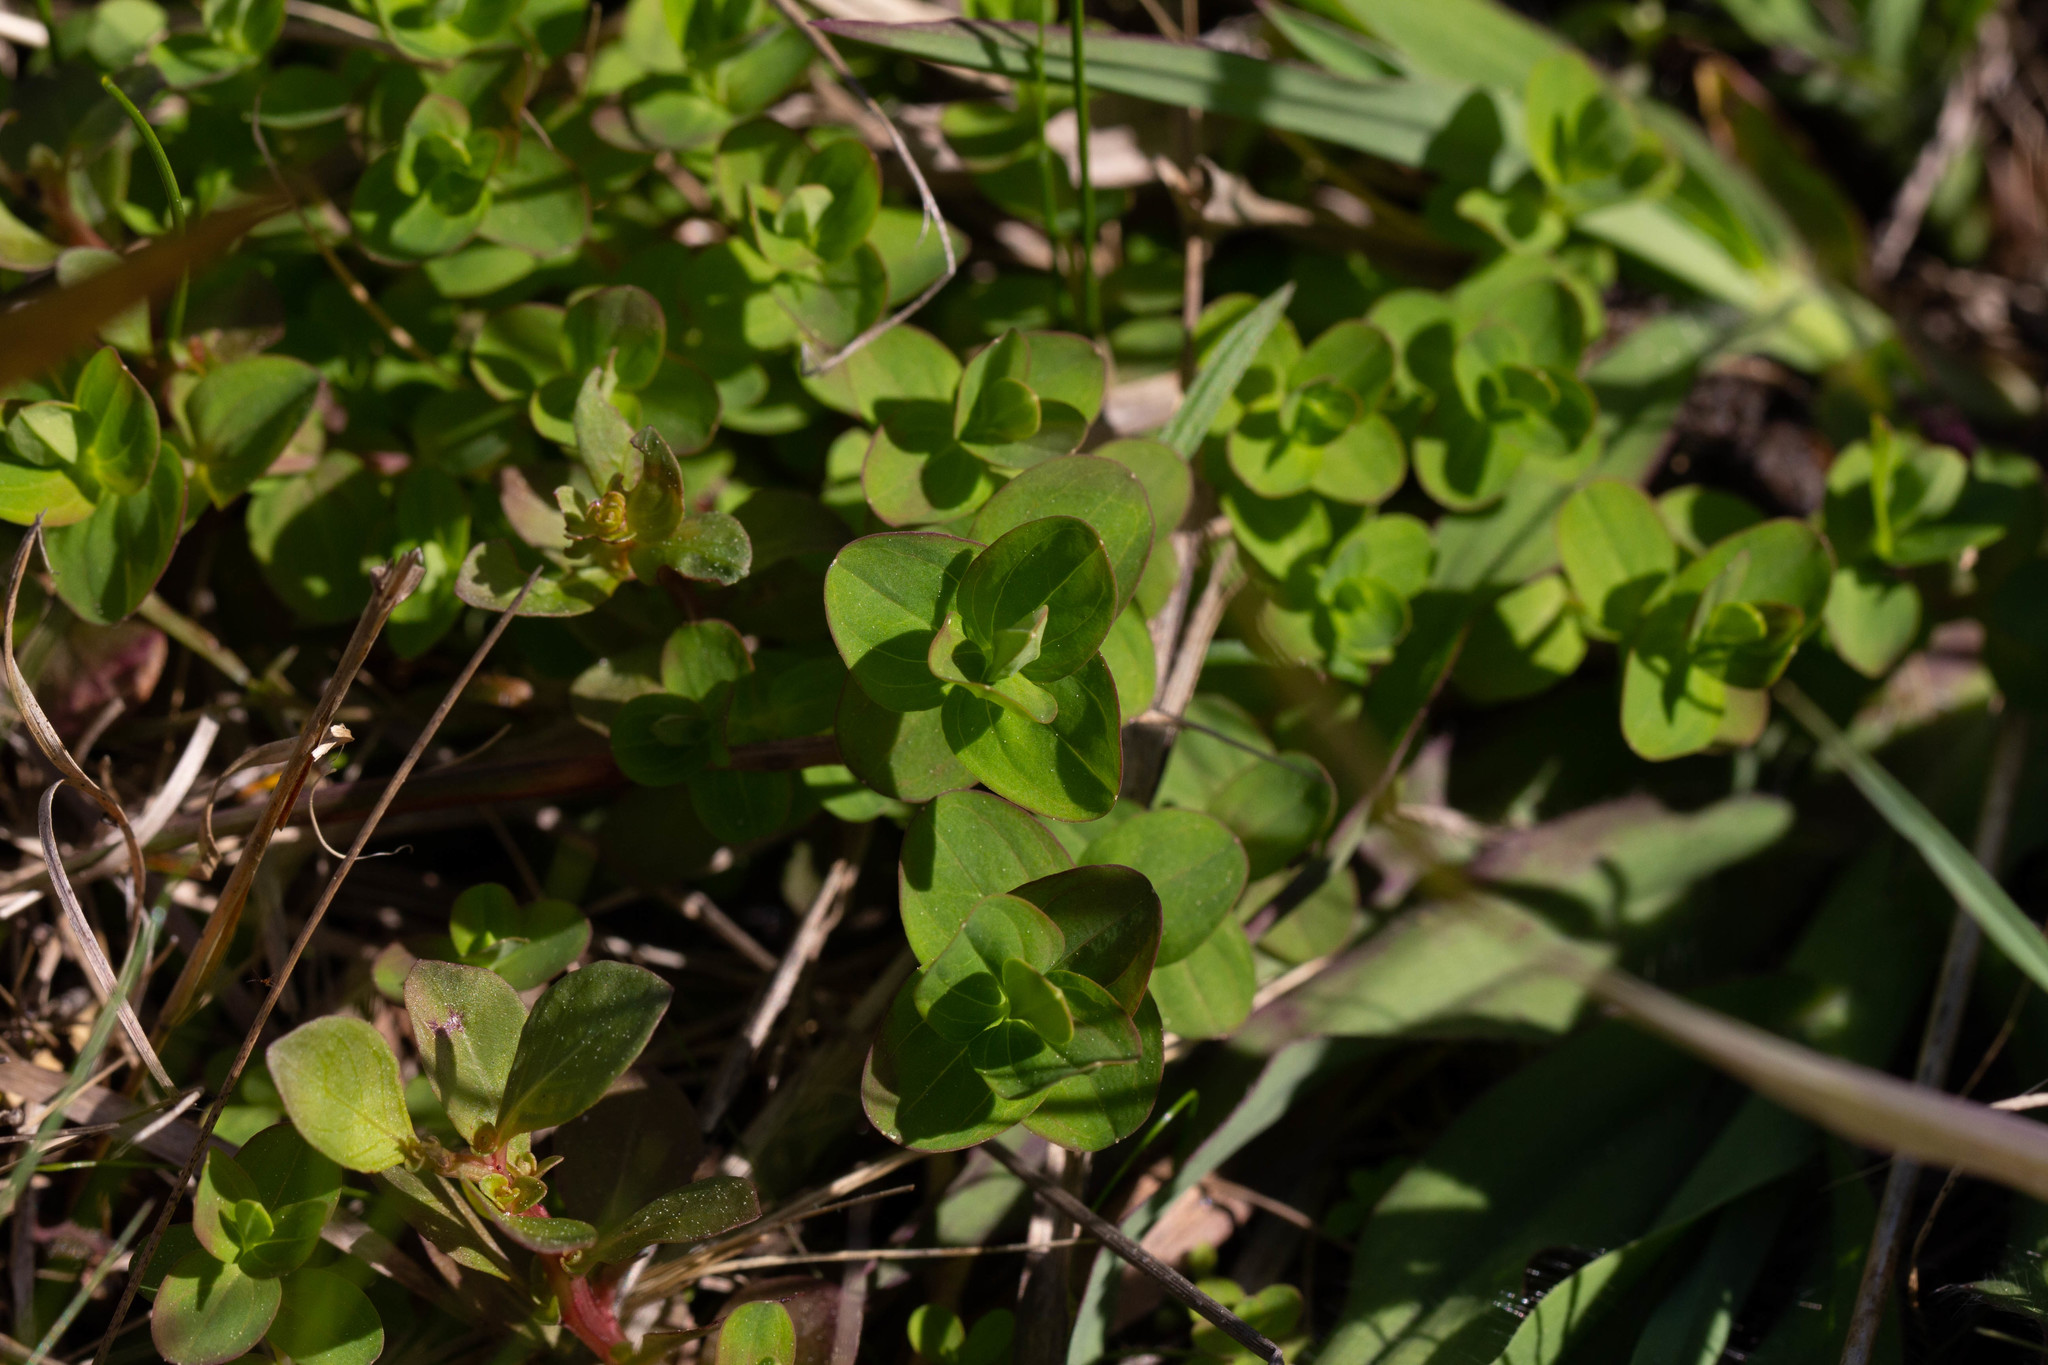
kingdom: Plantae
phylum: Tracheophyta
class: Magnoliopsida
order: Malpighiales
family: Hypericaceae
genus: Hypericum
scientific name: Hypericum mutilum
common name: Dwarf st. john's-wort
